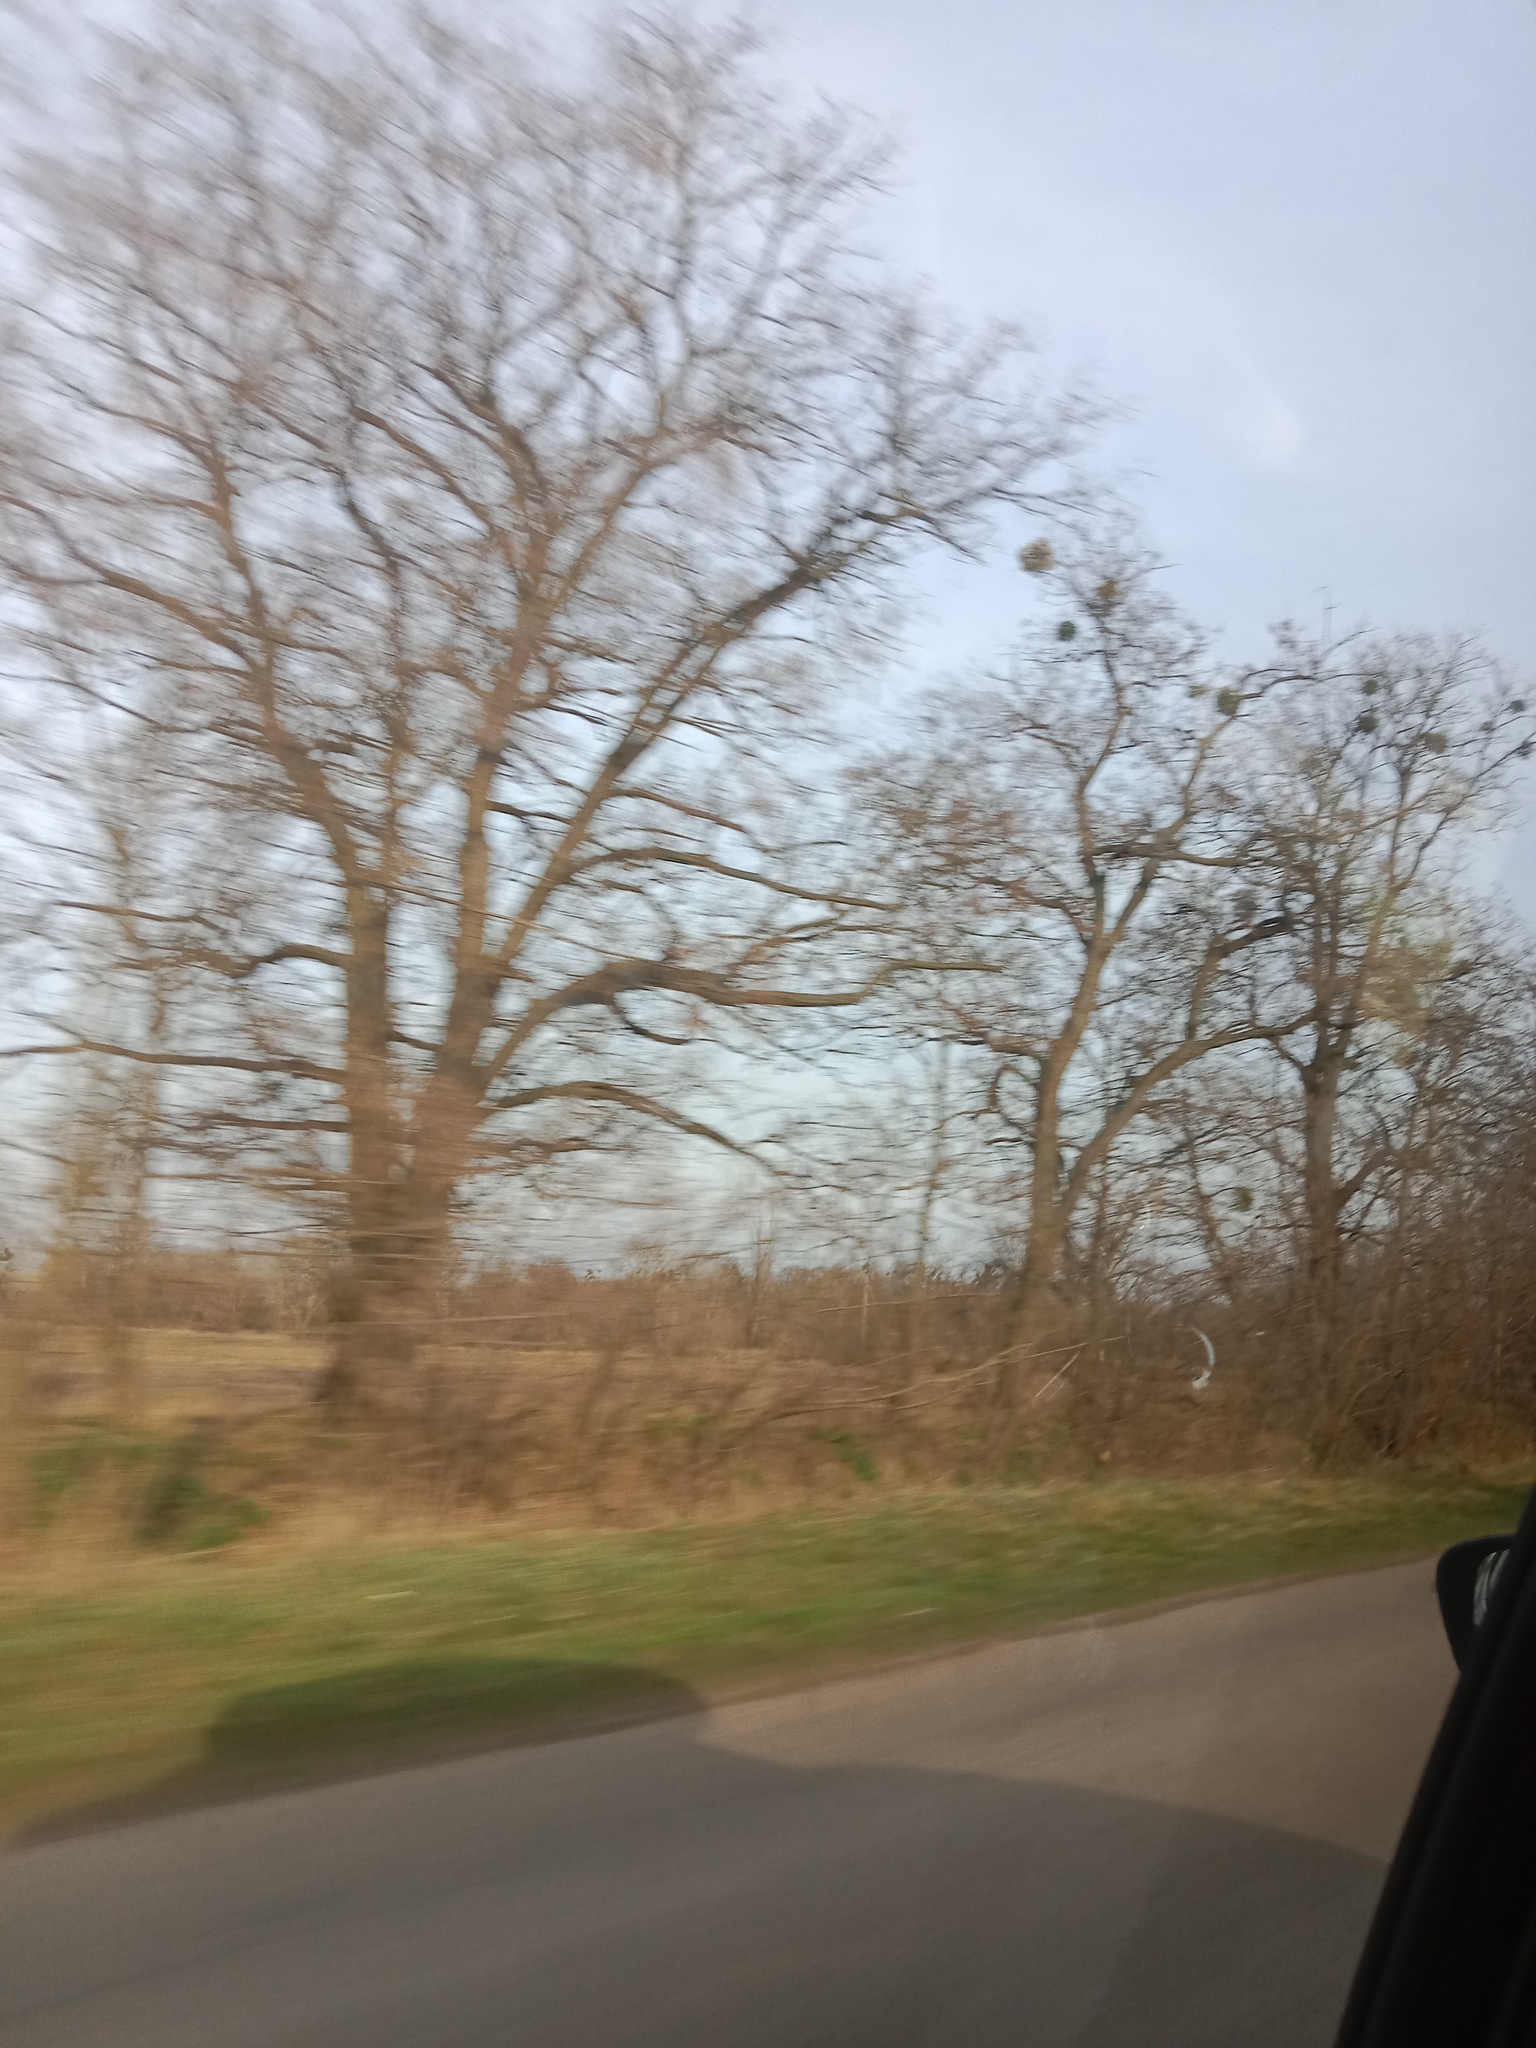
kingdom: Plantae
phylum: Tracheophyta
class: Magnoliopsida
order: Santalales
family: Viscaceae
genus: Viscum
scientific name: Viscum album
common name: Mistletoe
